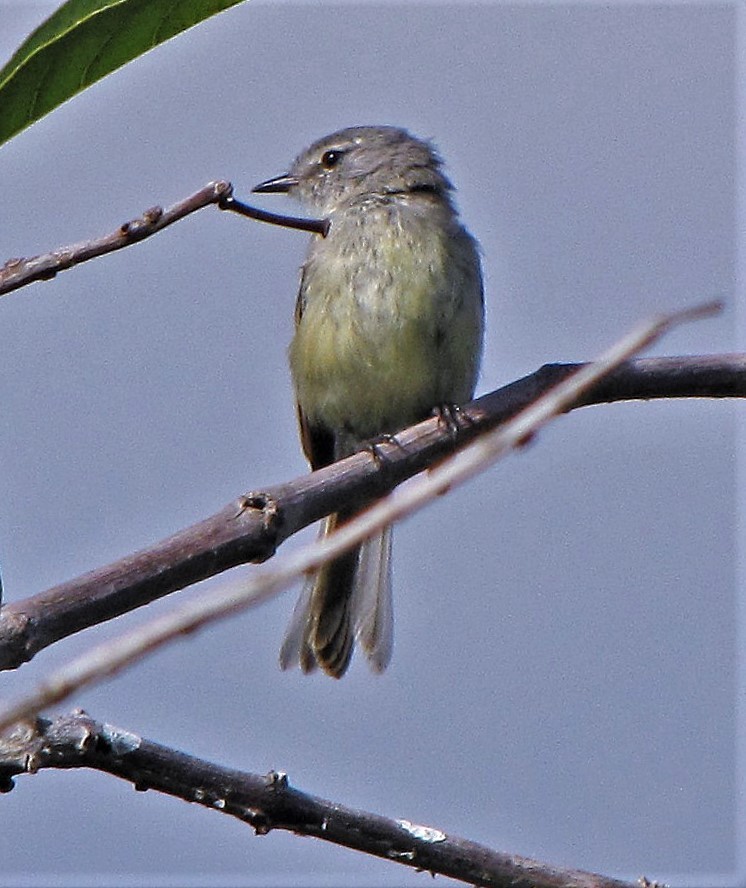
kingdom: Animalia
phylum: Chordata
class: Aves
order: Passeriformes
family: Tyrannidae
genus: Serpophaga
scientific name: Serpophaga subcristata
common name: White-crested tyrannulet
